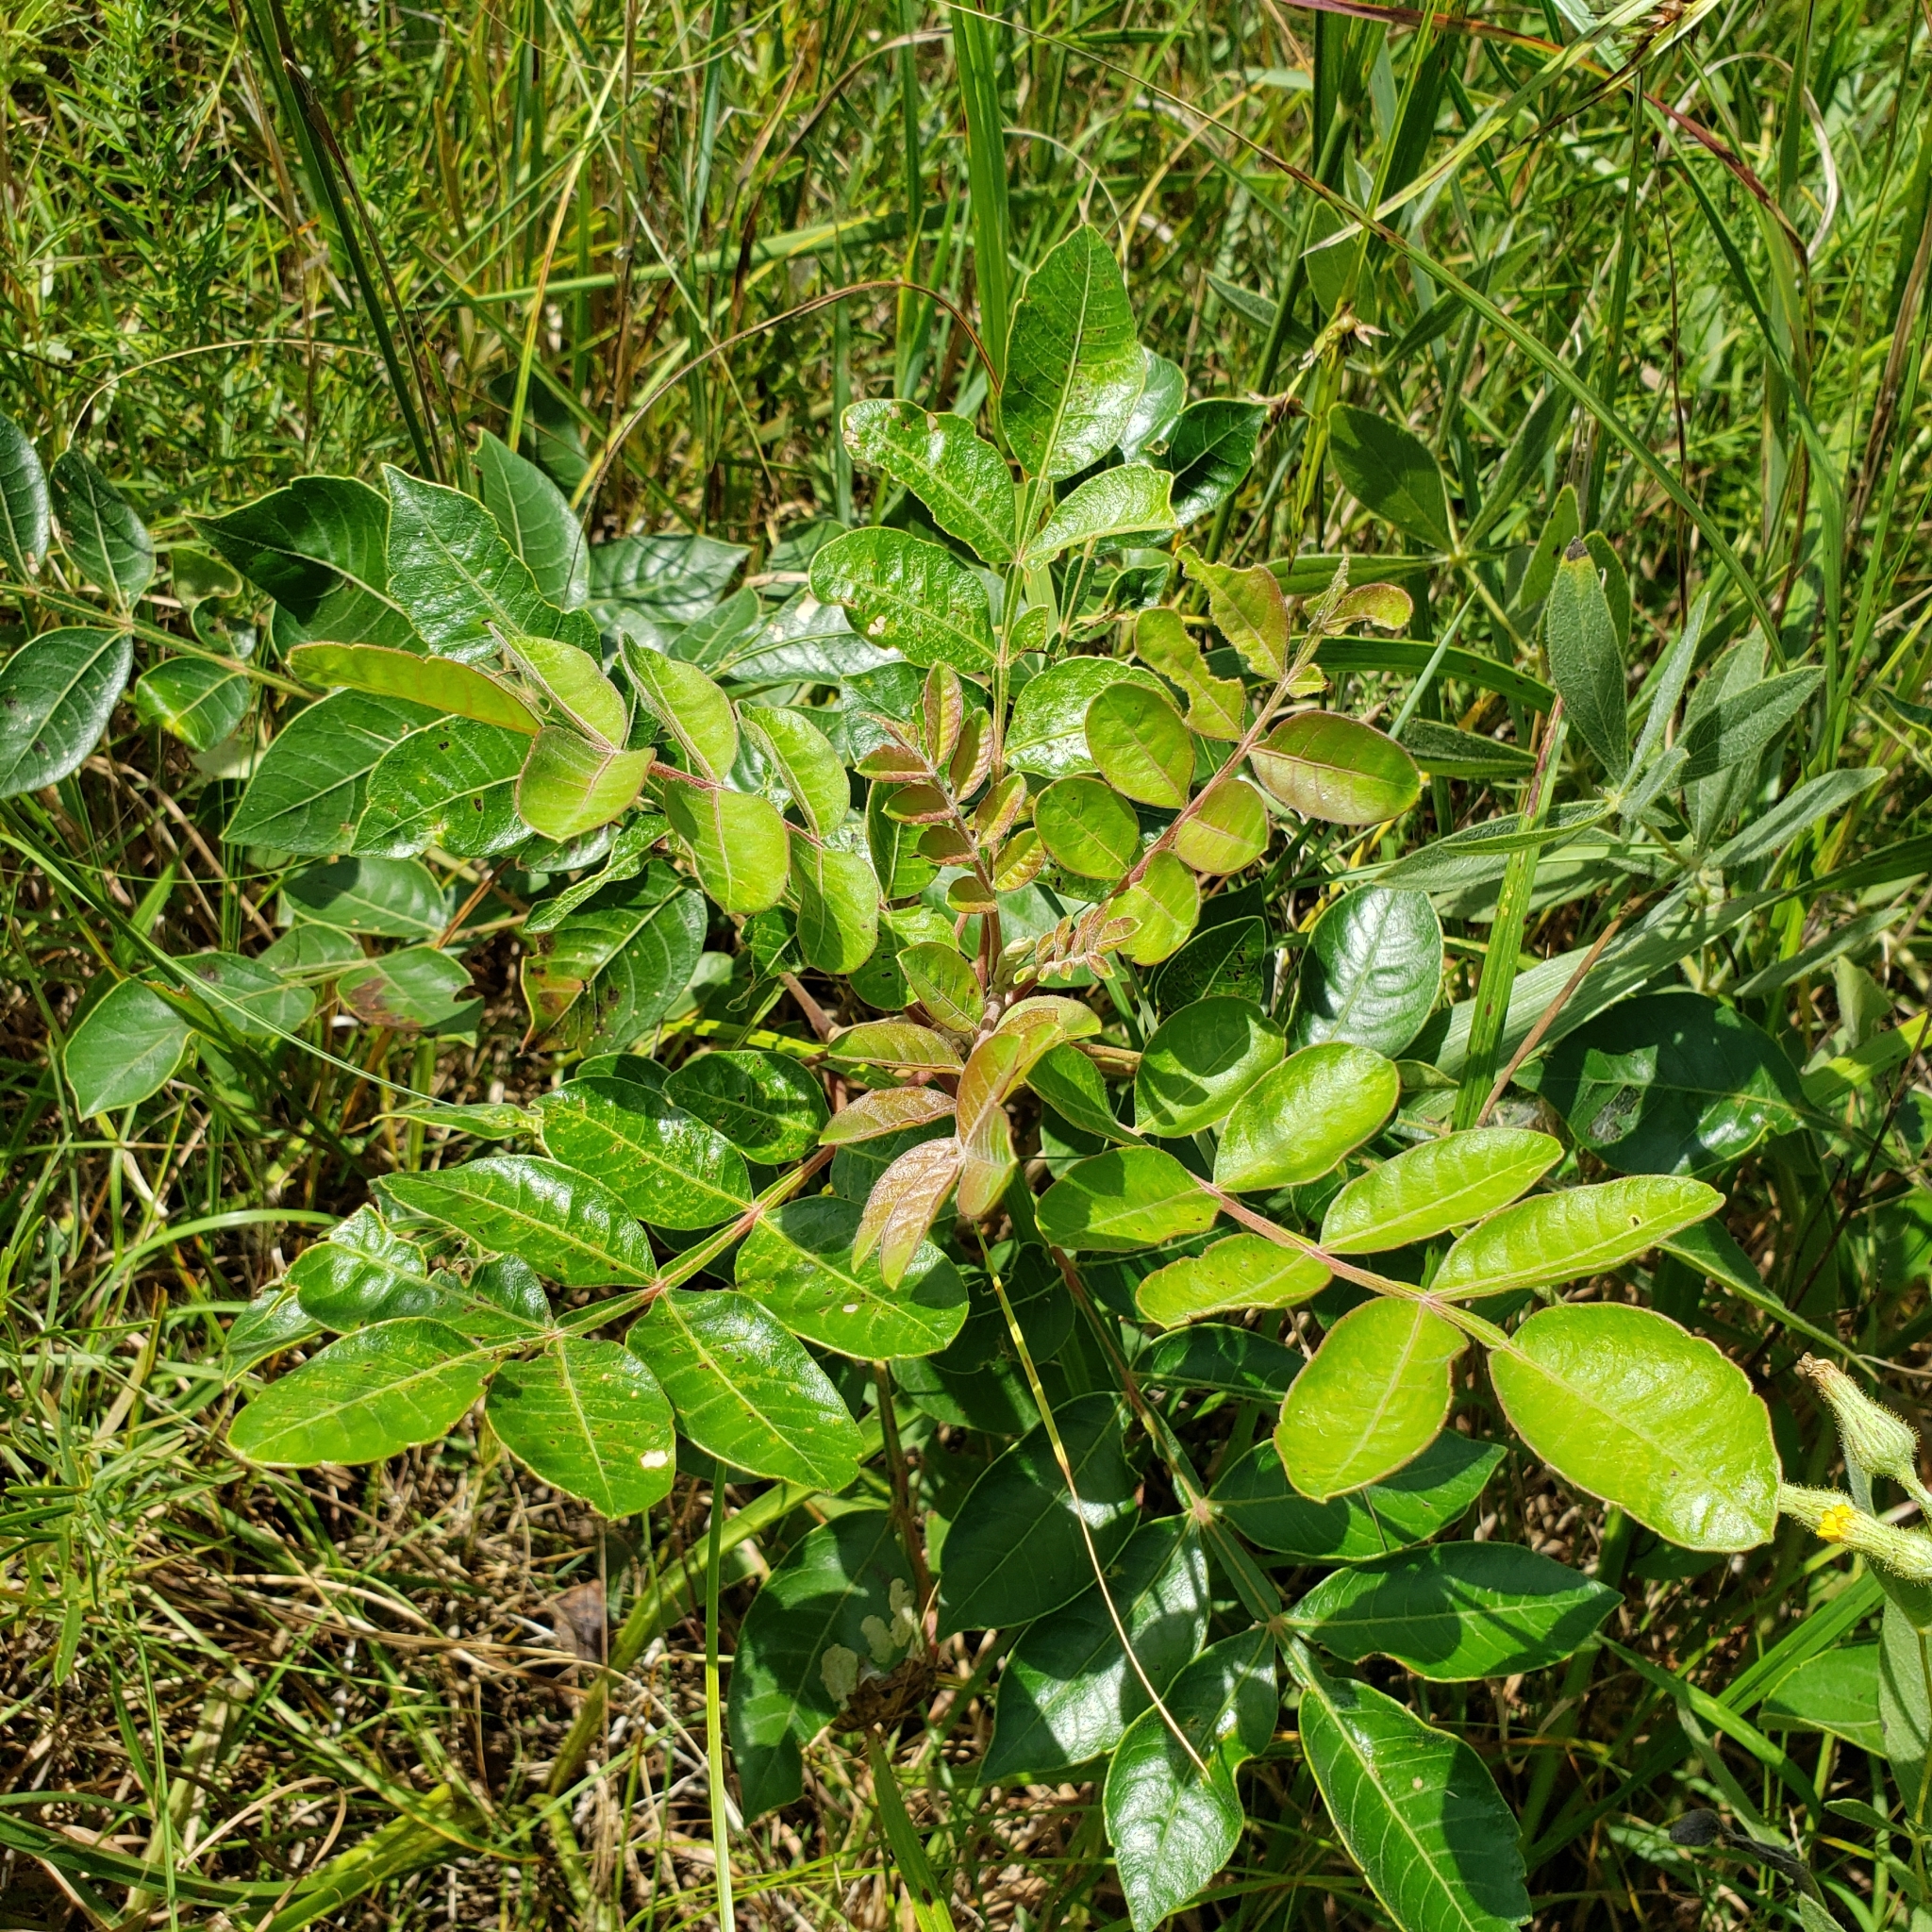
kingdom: Plantae
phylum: Tracheophyta
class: Magnoliopsida
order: Sapindales
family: Anacardiaceae
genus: Rhus
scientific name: Rhus copallina
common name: Shining sumac
